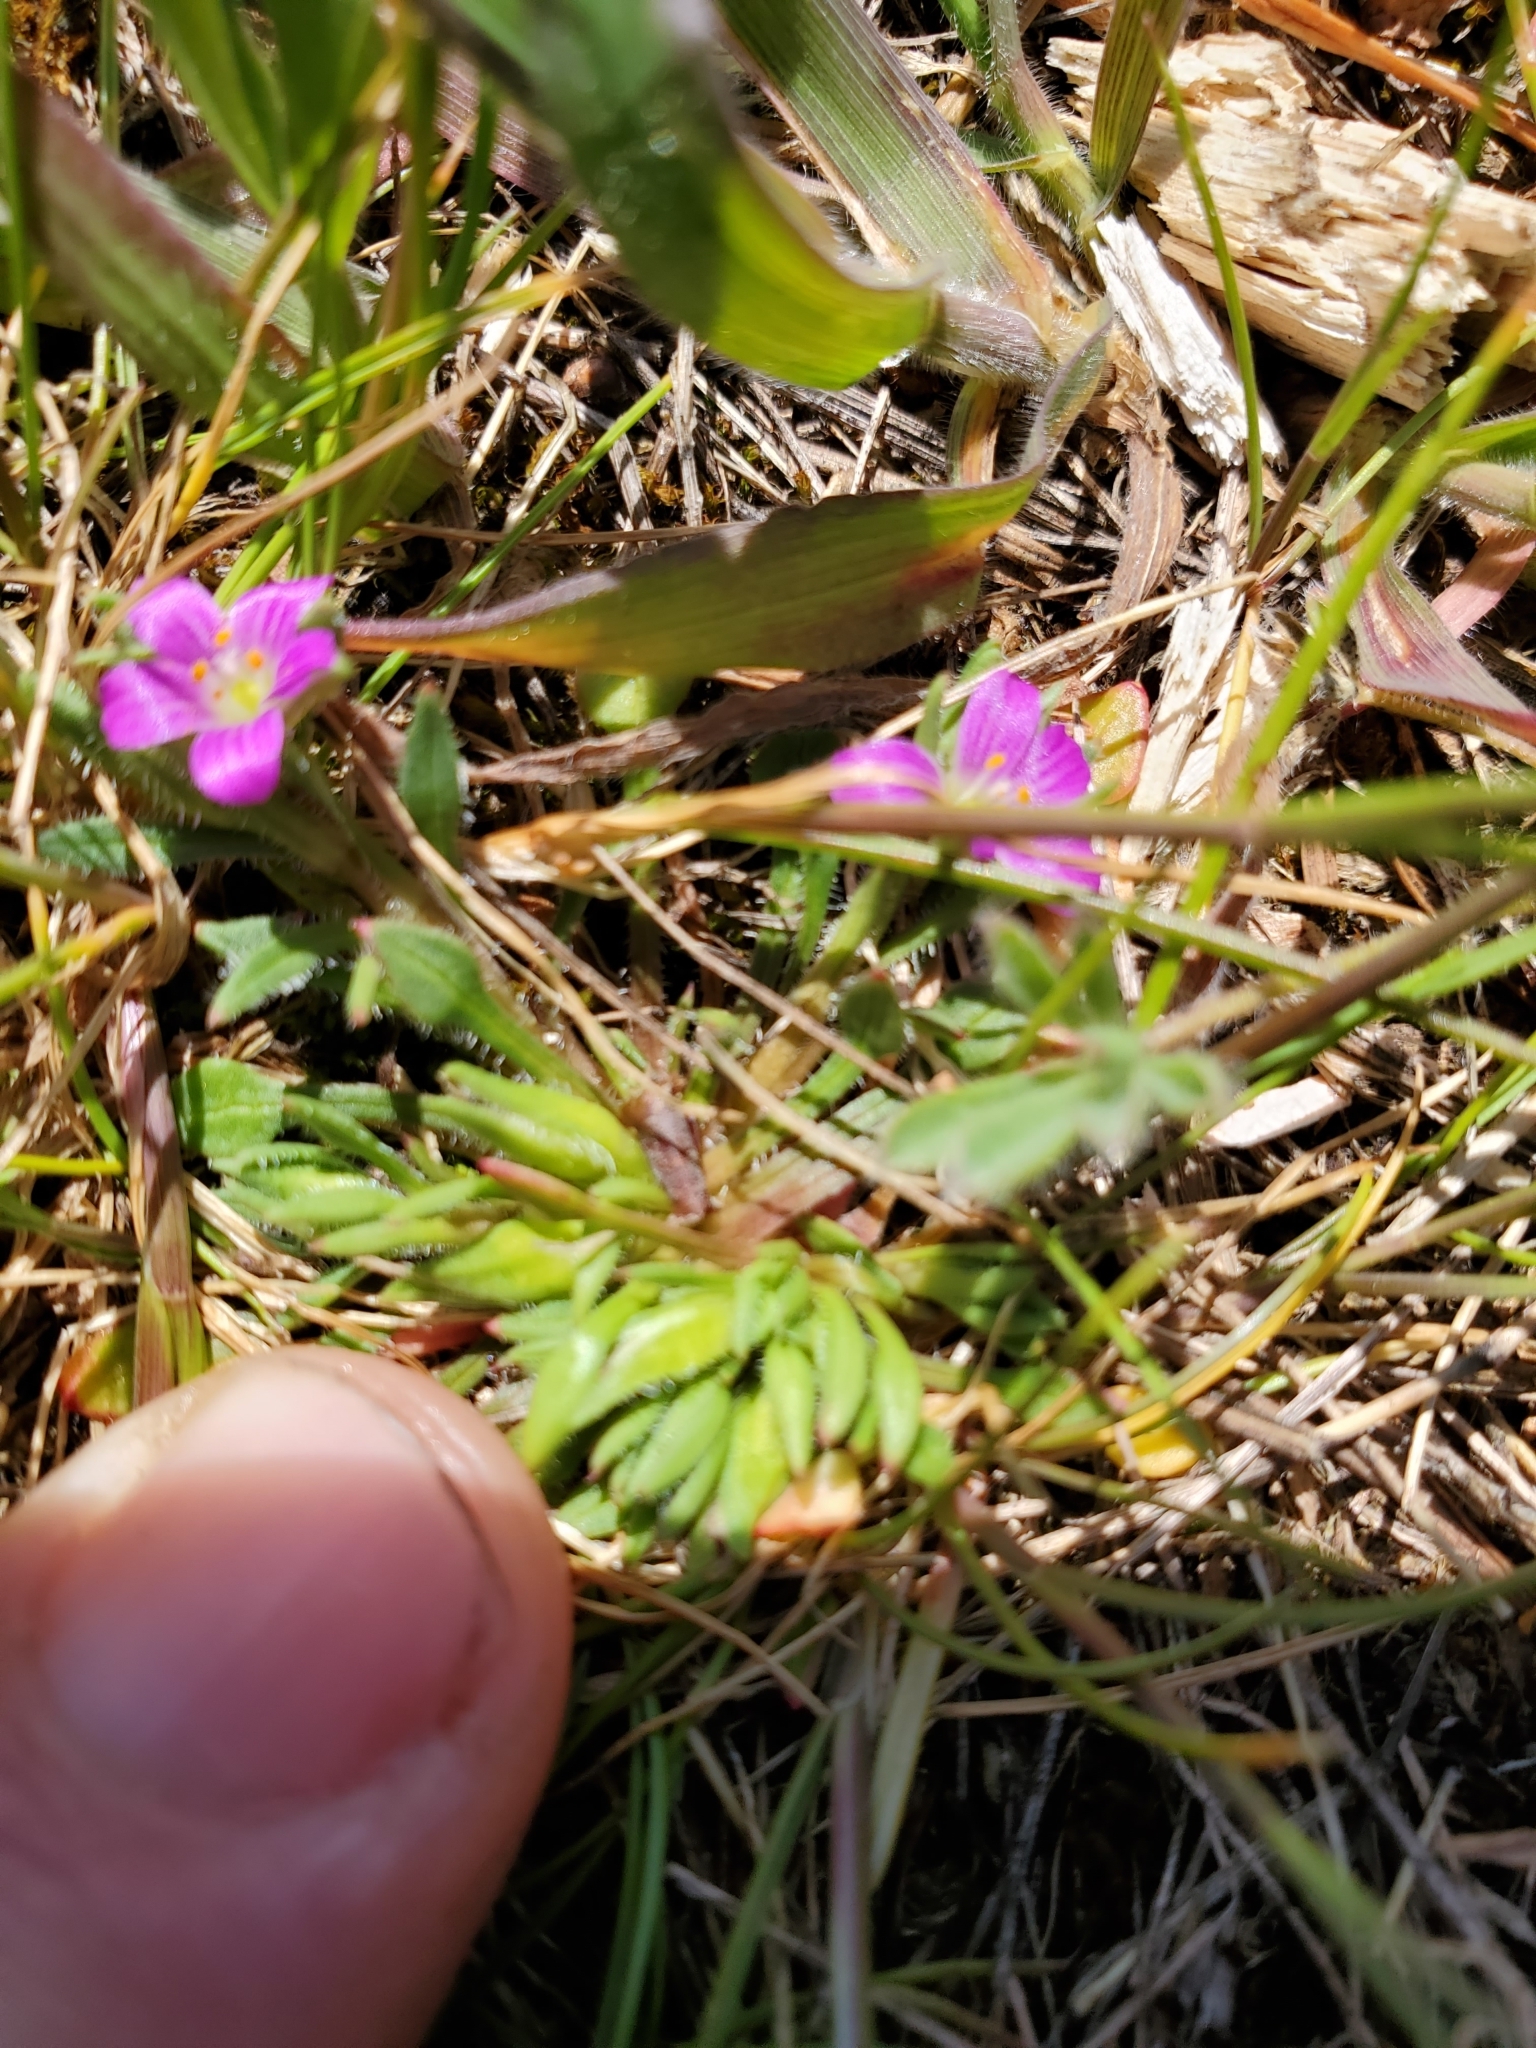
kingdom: Plantae
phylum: Tracheophyta
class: Magnoliopsida
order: Caryophyllales
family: Montiaceae
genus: Calandrinia
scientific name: Calandrinia menziesii
